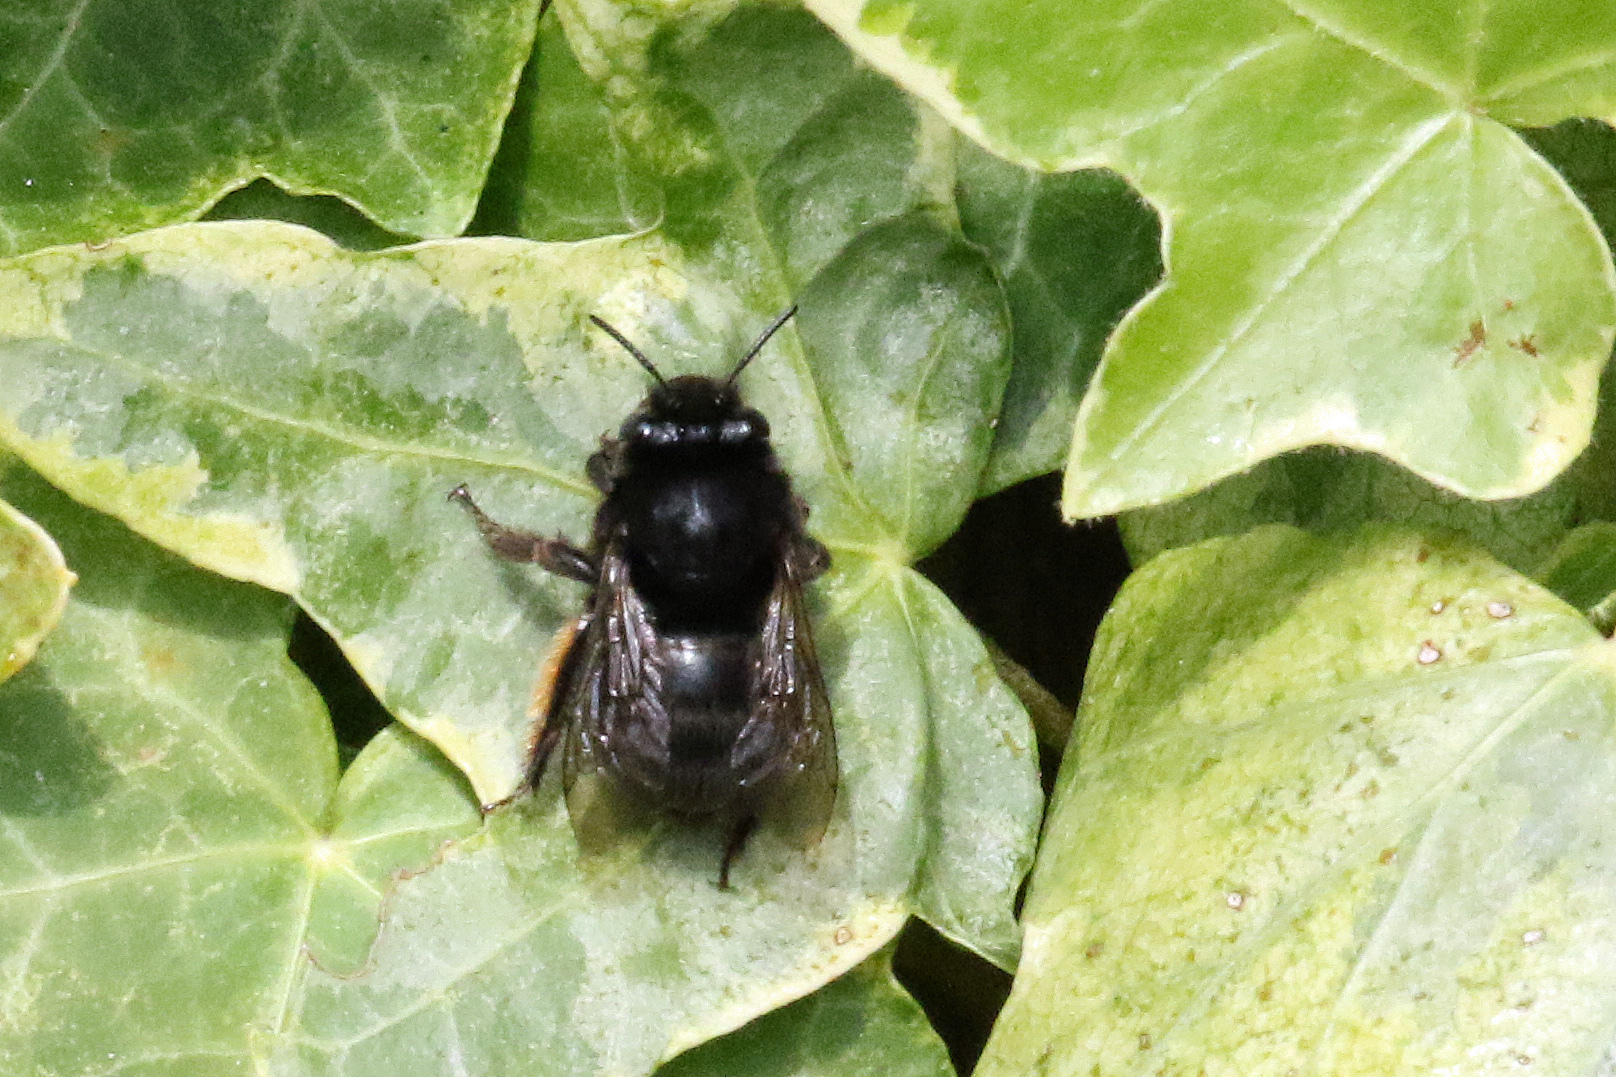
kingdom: Animalia
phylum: Arthropoda
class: Insecta
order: Hymenoptera
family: Apidae
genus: Anthophora
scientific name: Anthophora plumipes
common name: Hairy-footed flower bee
